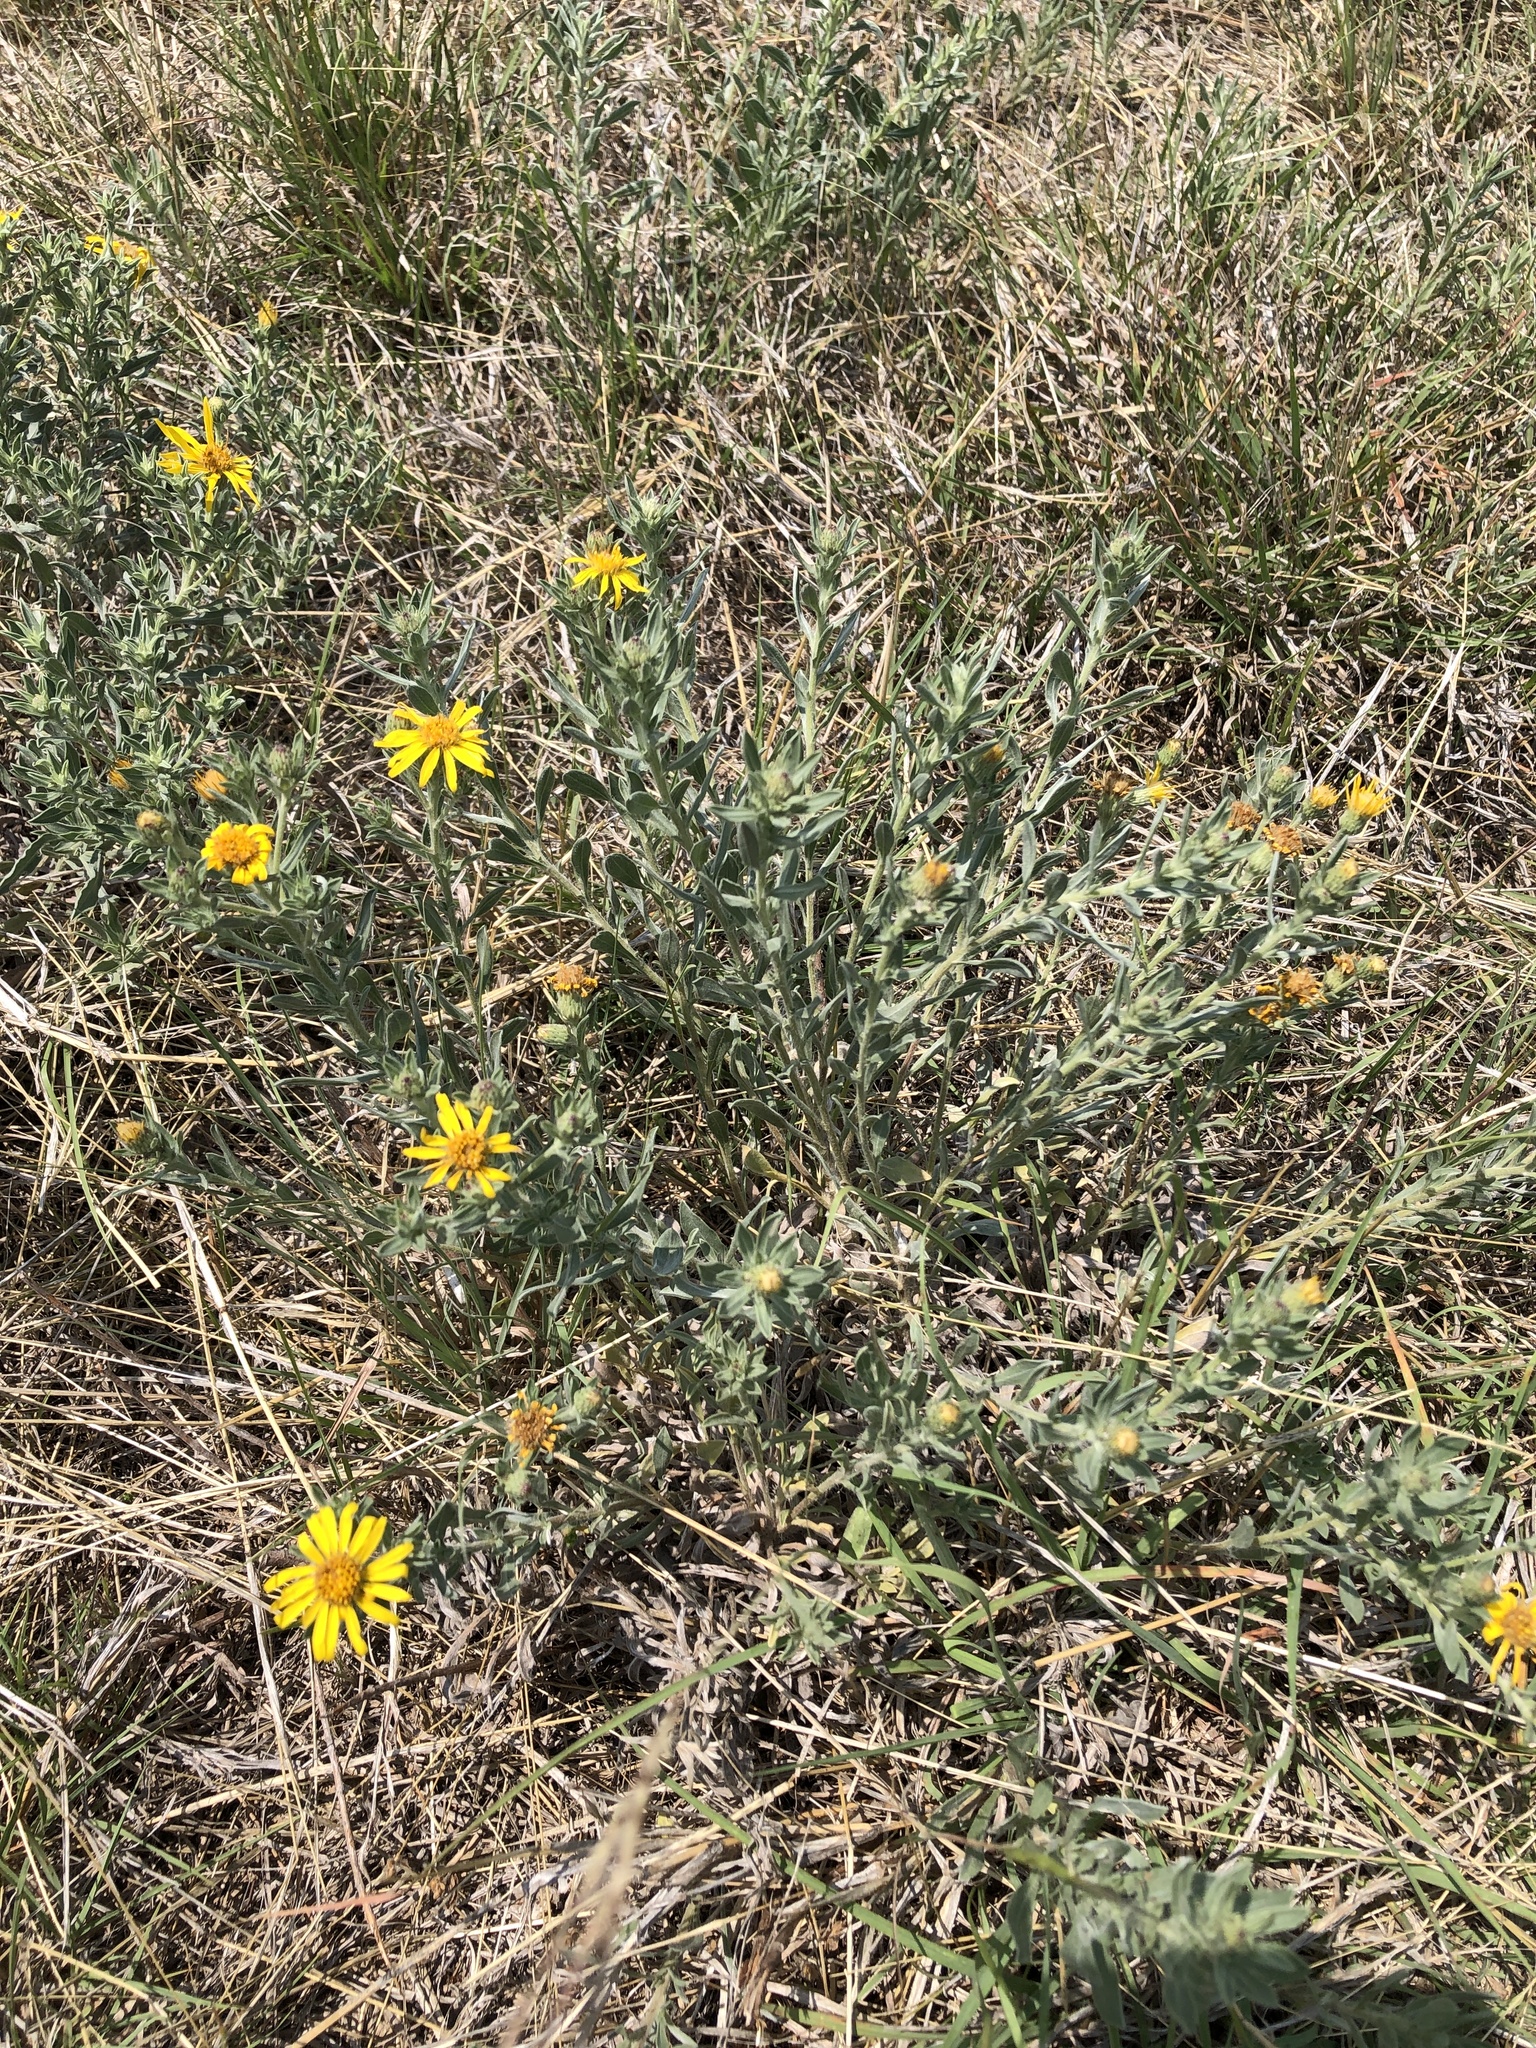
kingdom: Plantae
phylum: Tracheophyta
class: Magnoliopsida
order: Asterales
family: Asteraceae
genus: Heterotheca
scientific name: Heterotheca canescens
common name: Hoary golden-aster
